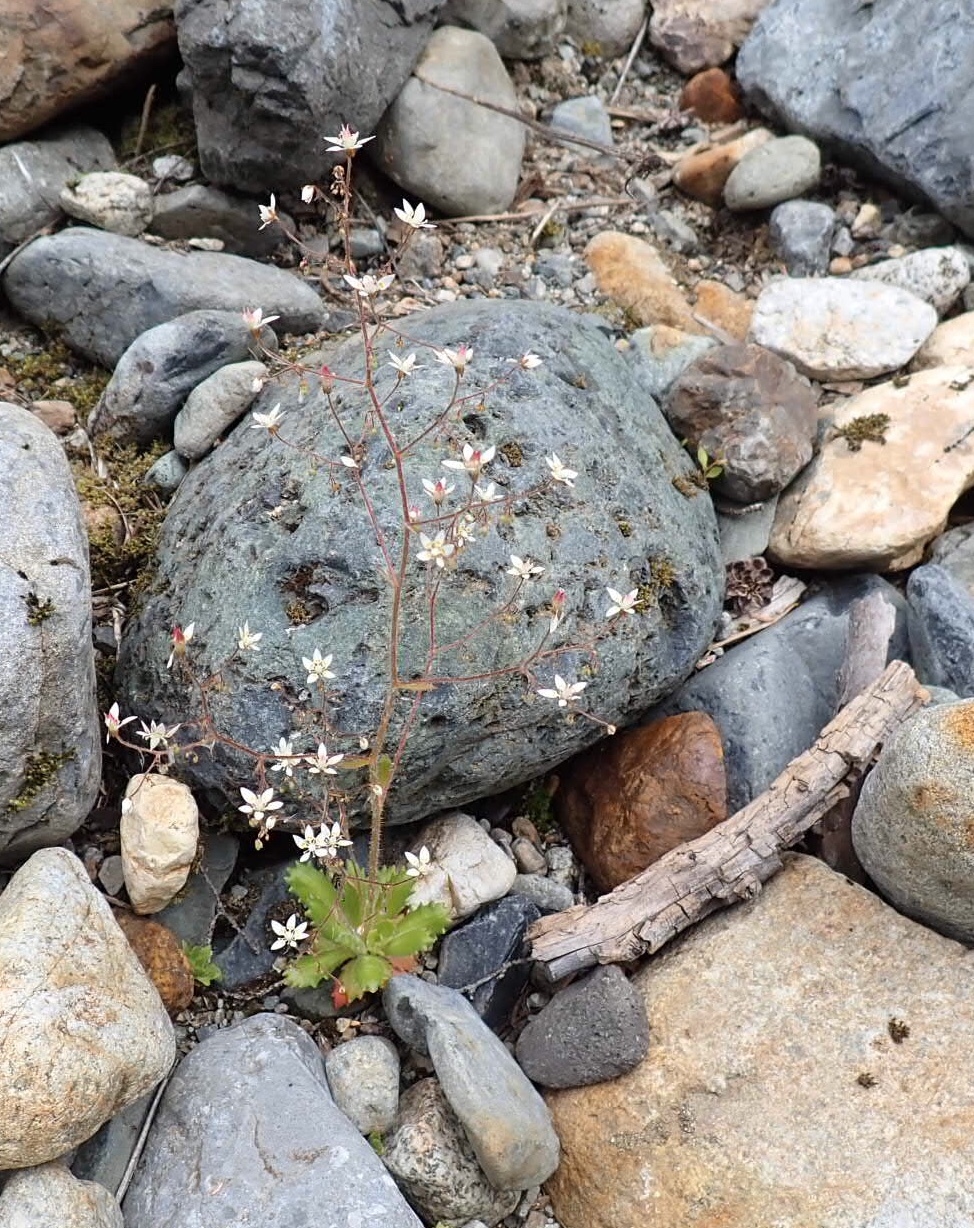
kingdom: Plantae
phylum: Tracheophyta
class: Magnoliopsida
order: Saxifragales
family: Saxifragaceae
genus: Micranthes
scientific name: Micranthes ferruginea
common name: Rusty saxifrage
